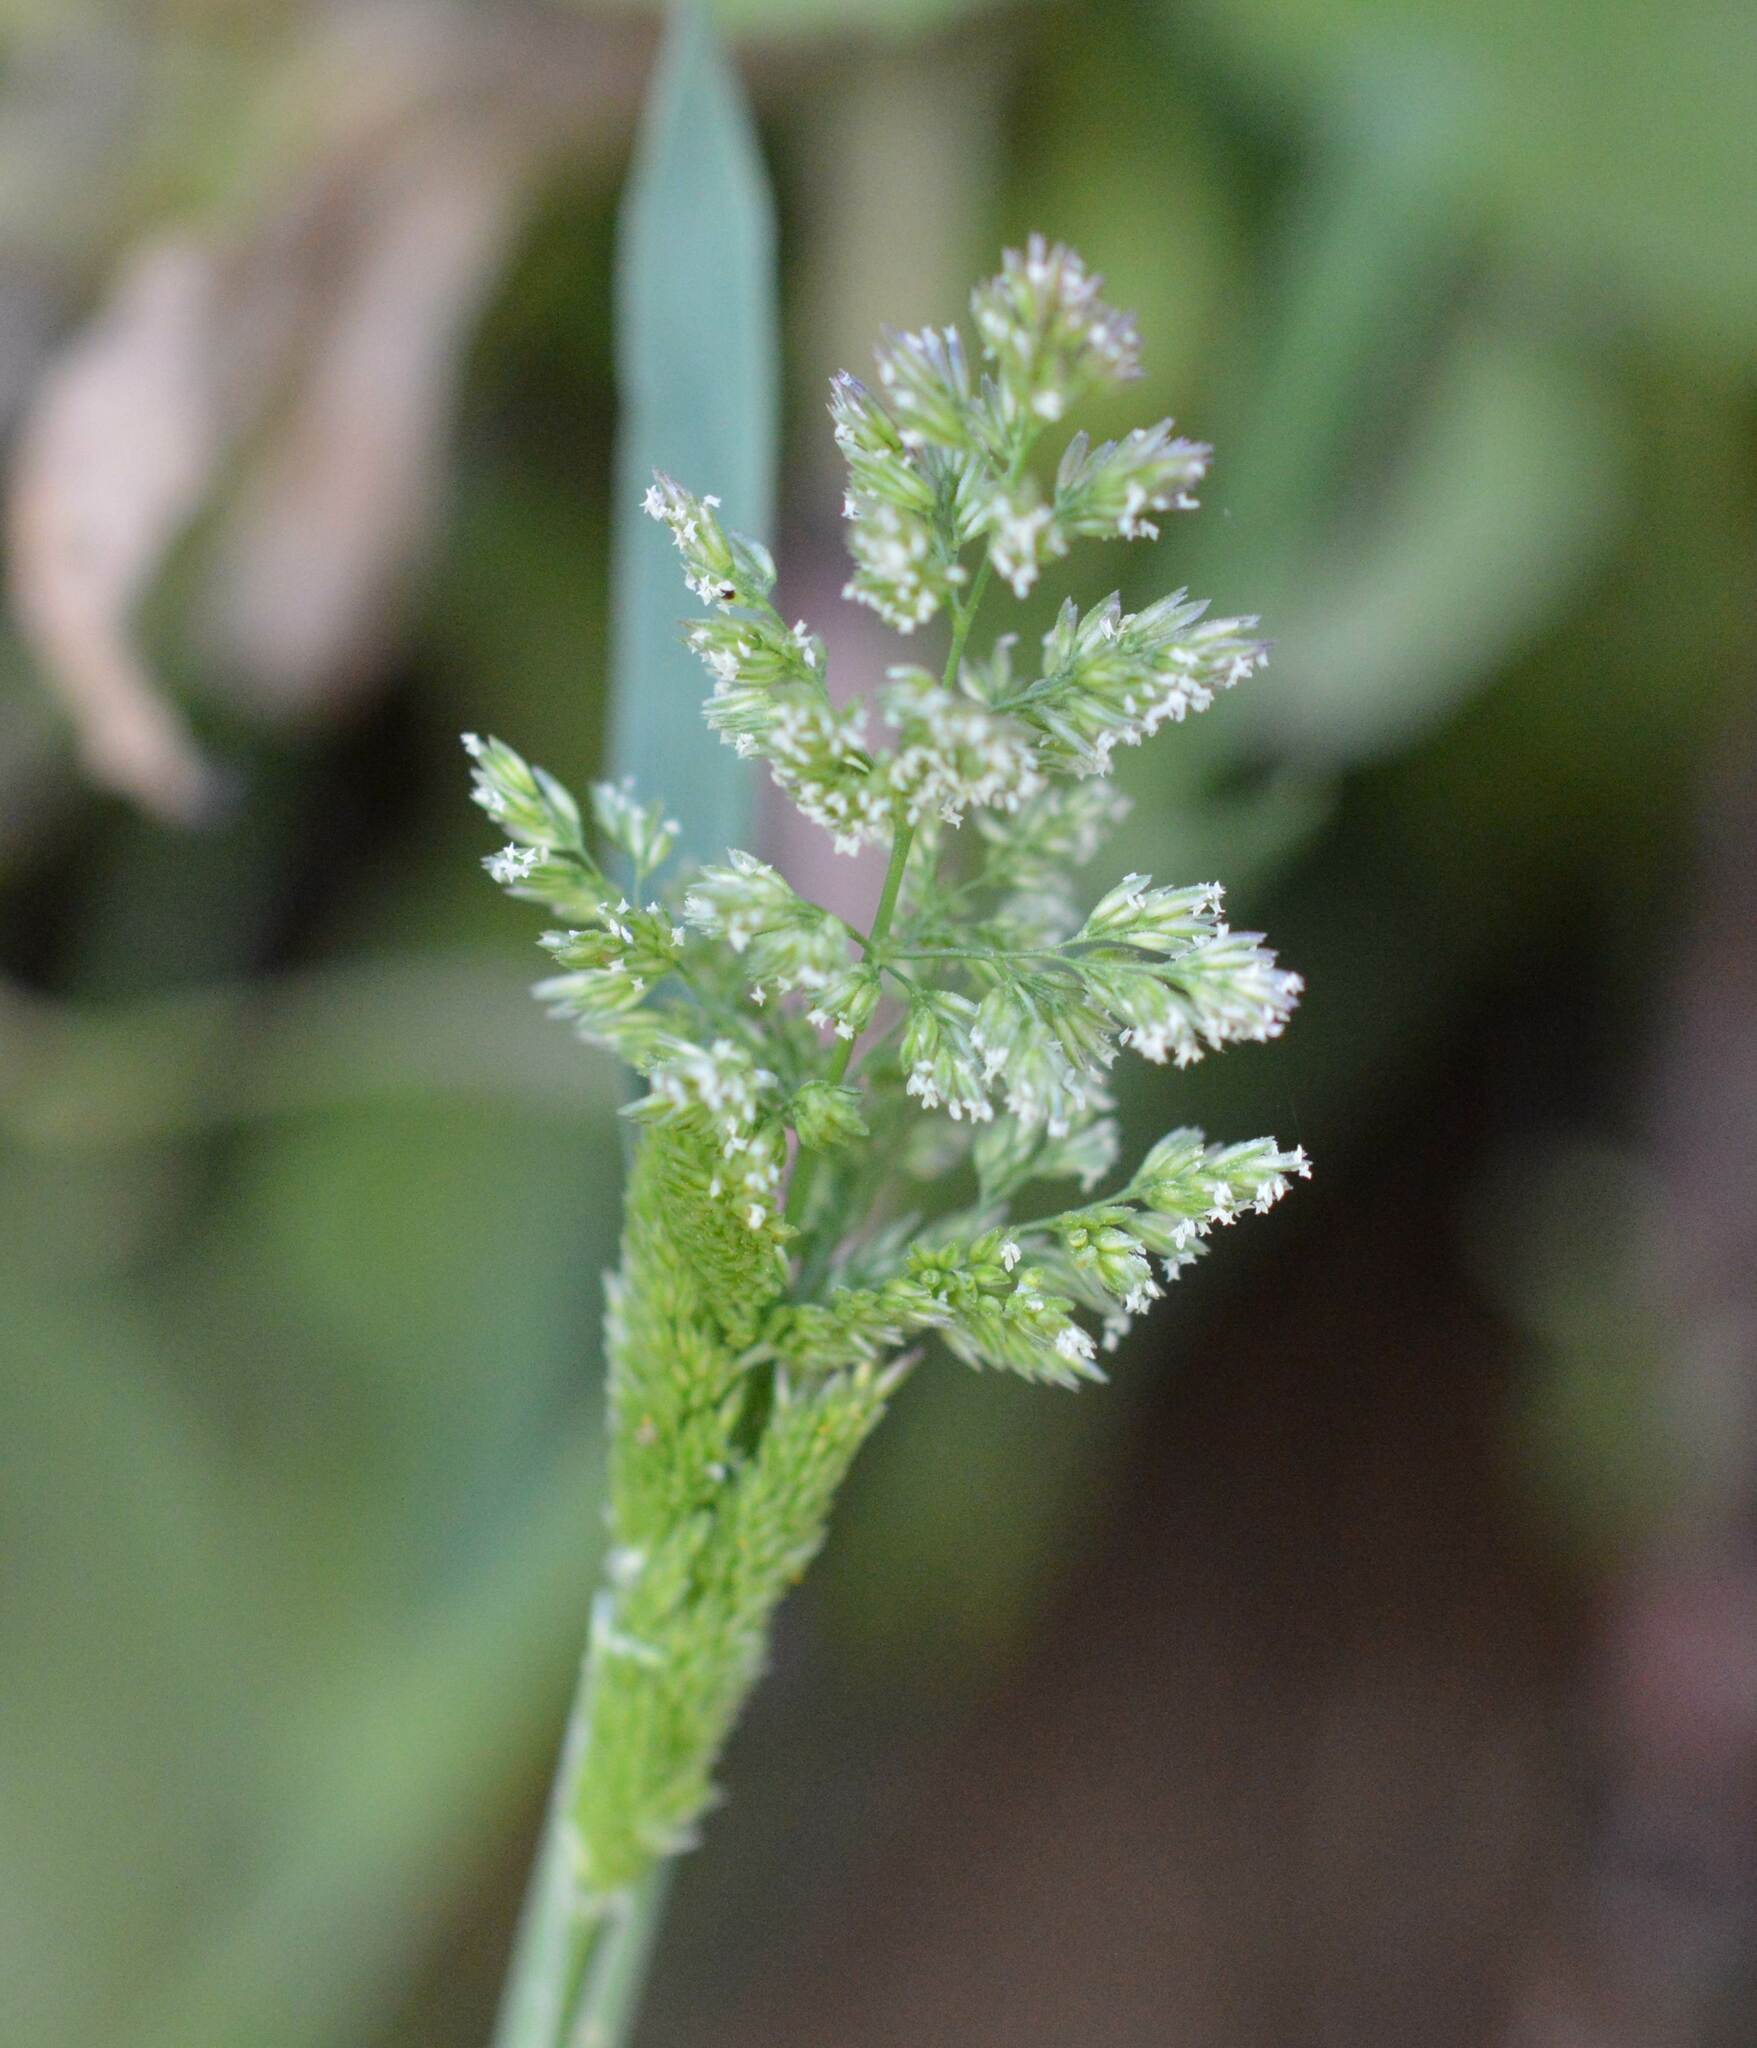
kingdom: Plantae
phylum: Tracheophyta
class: Liliopsida
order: Poales
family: Poaceae
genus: Polypogon
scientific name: Polypogon viridis
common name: Water bent
